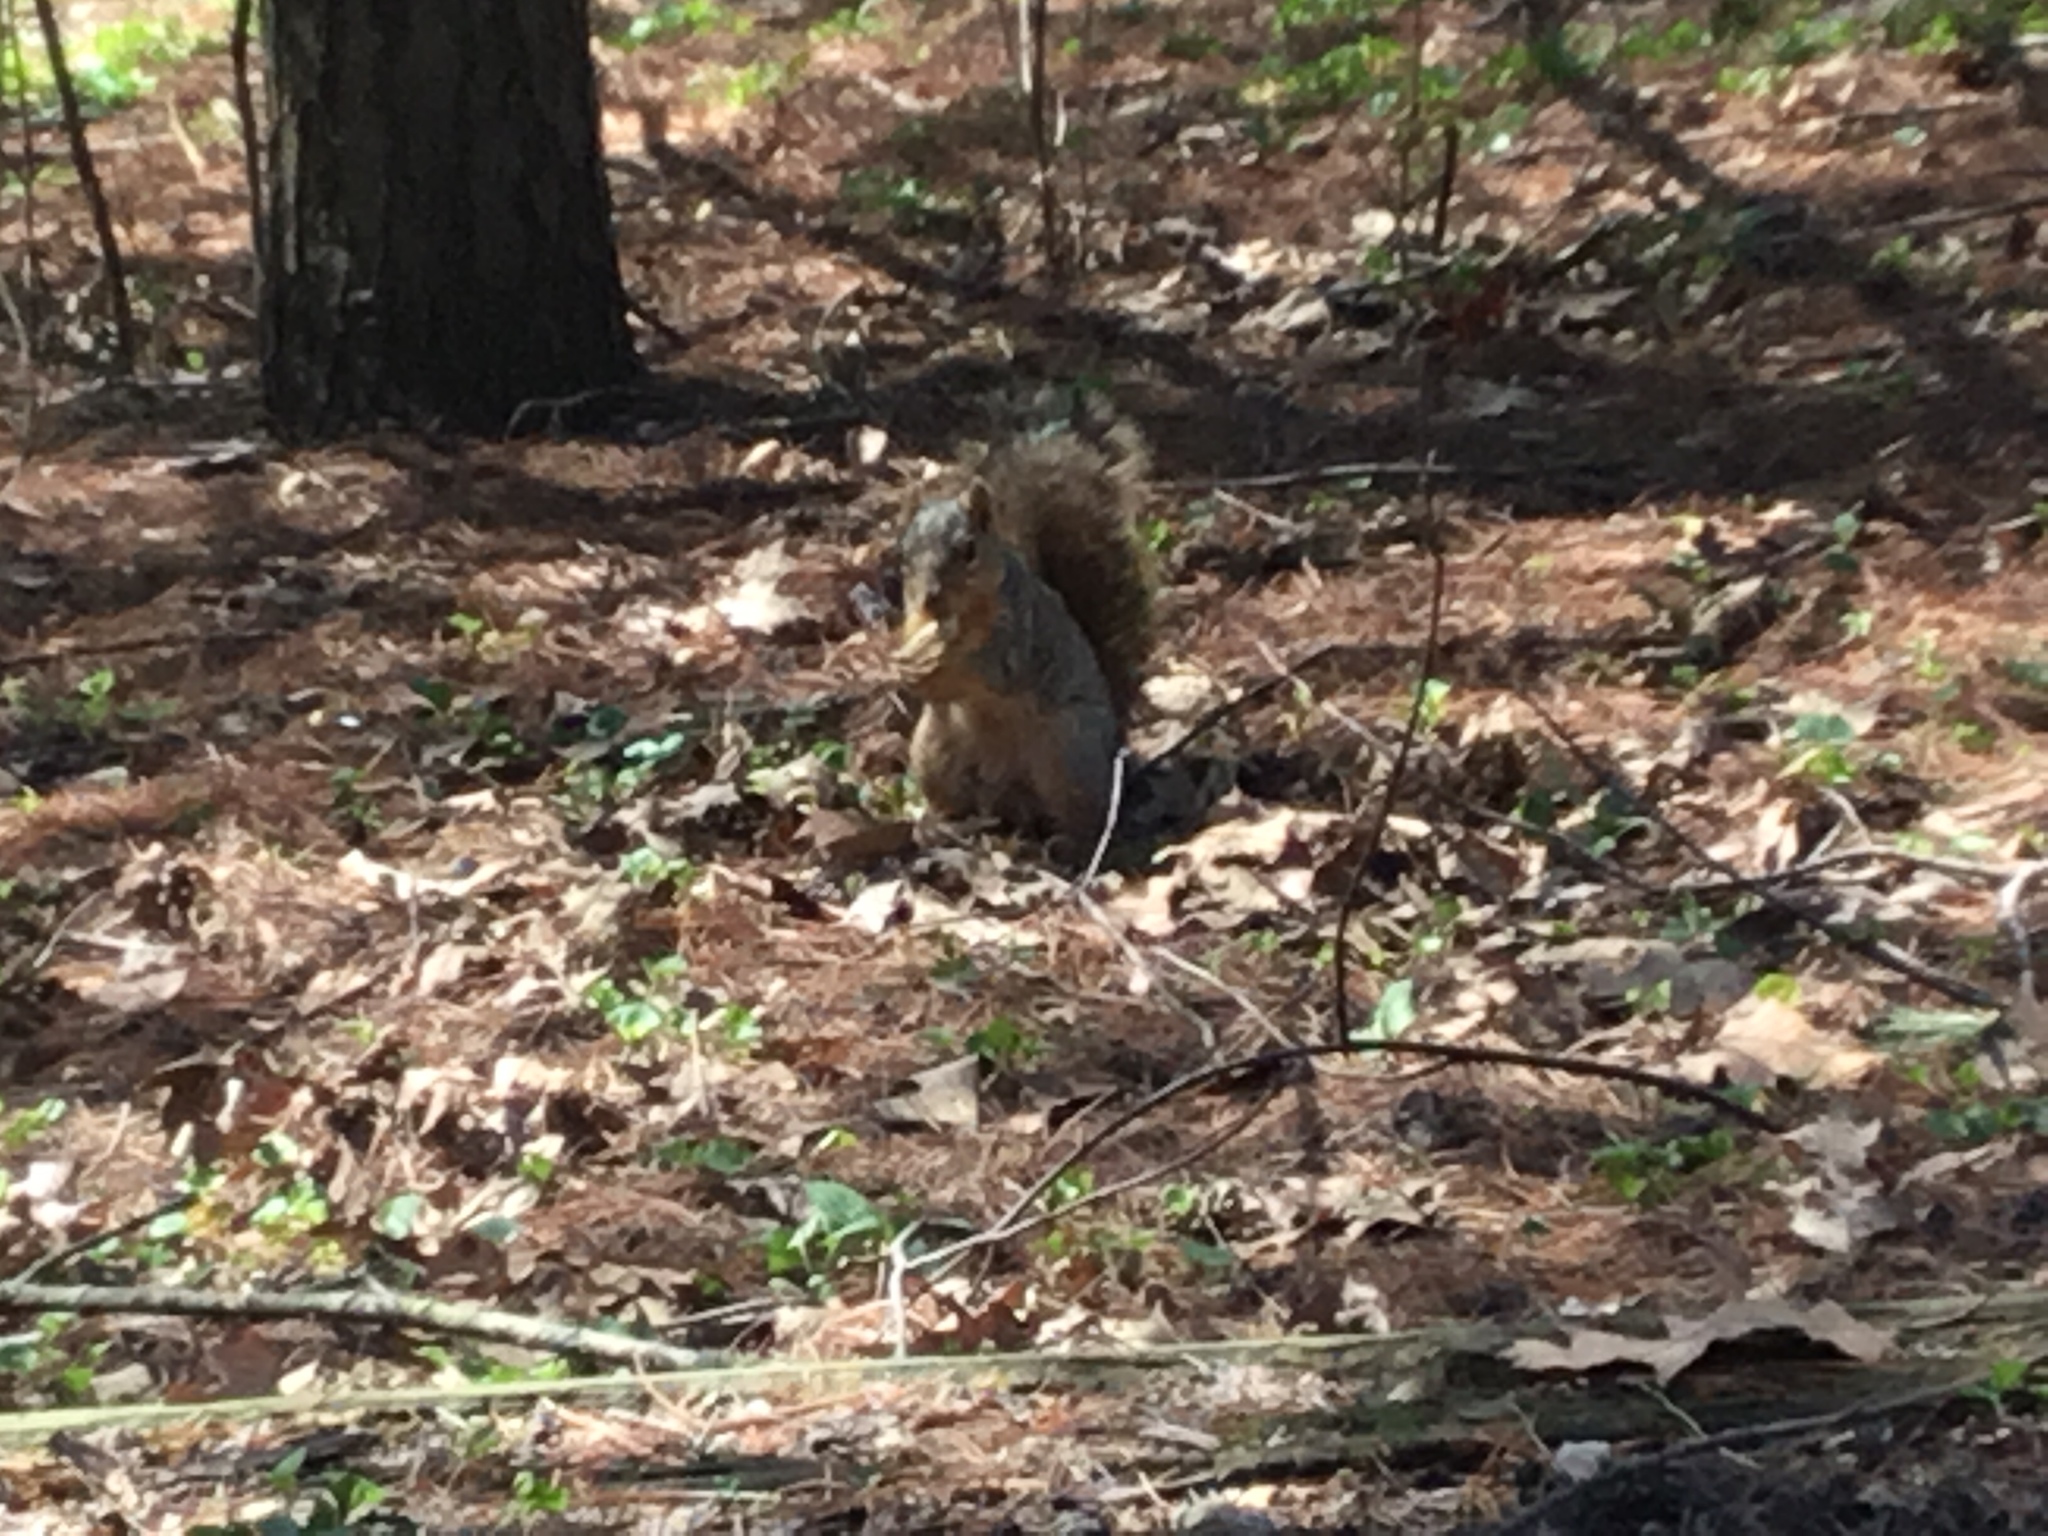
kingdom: Animalia
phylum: Chordata
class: Mammalia
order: Rodentia
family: Sciuridae
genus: Sciurus
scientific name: Sciurus niger
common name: Fox squirrel
